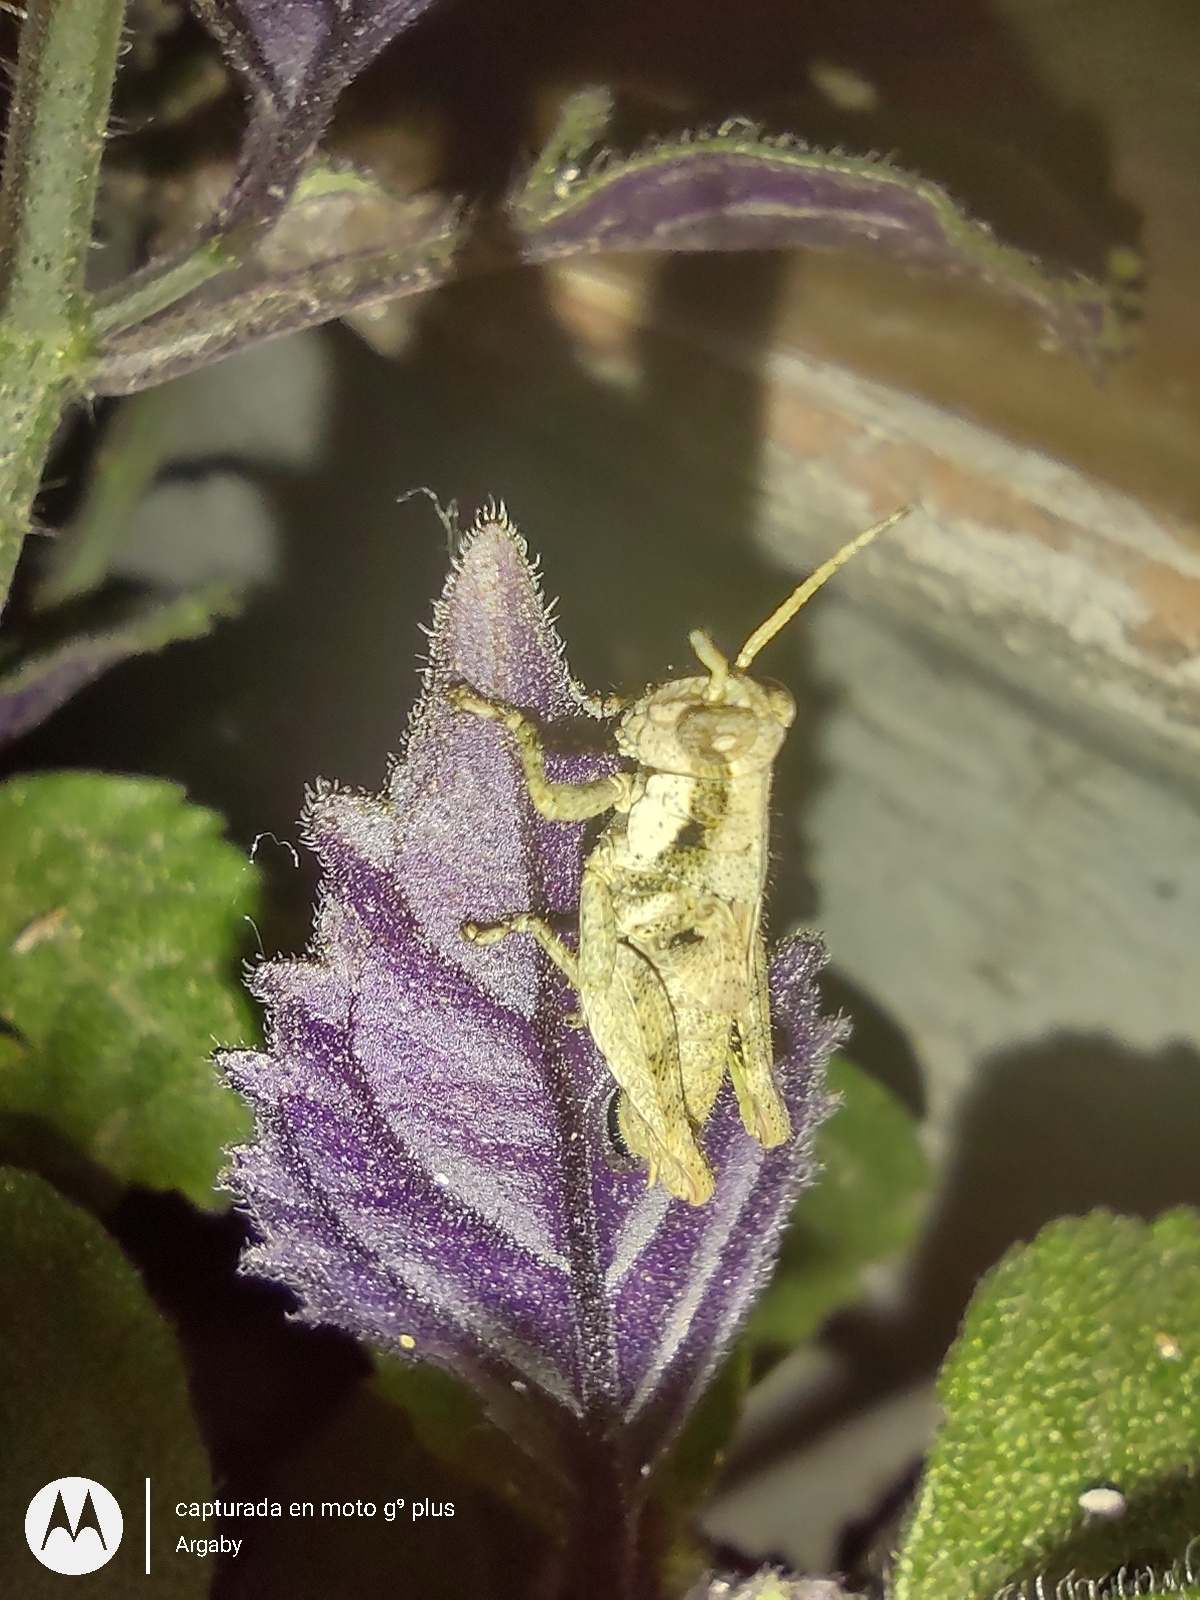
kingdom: Animalia
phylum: Arthropoda
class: Insecta
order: Orthoptera
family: Acrididae
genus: Ronderosia
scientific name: Ronderosia bergii
